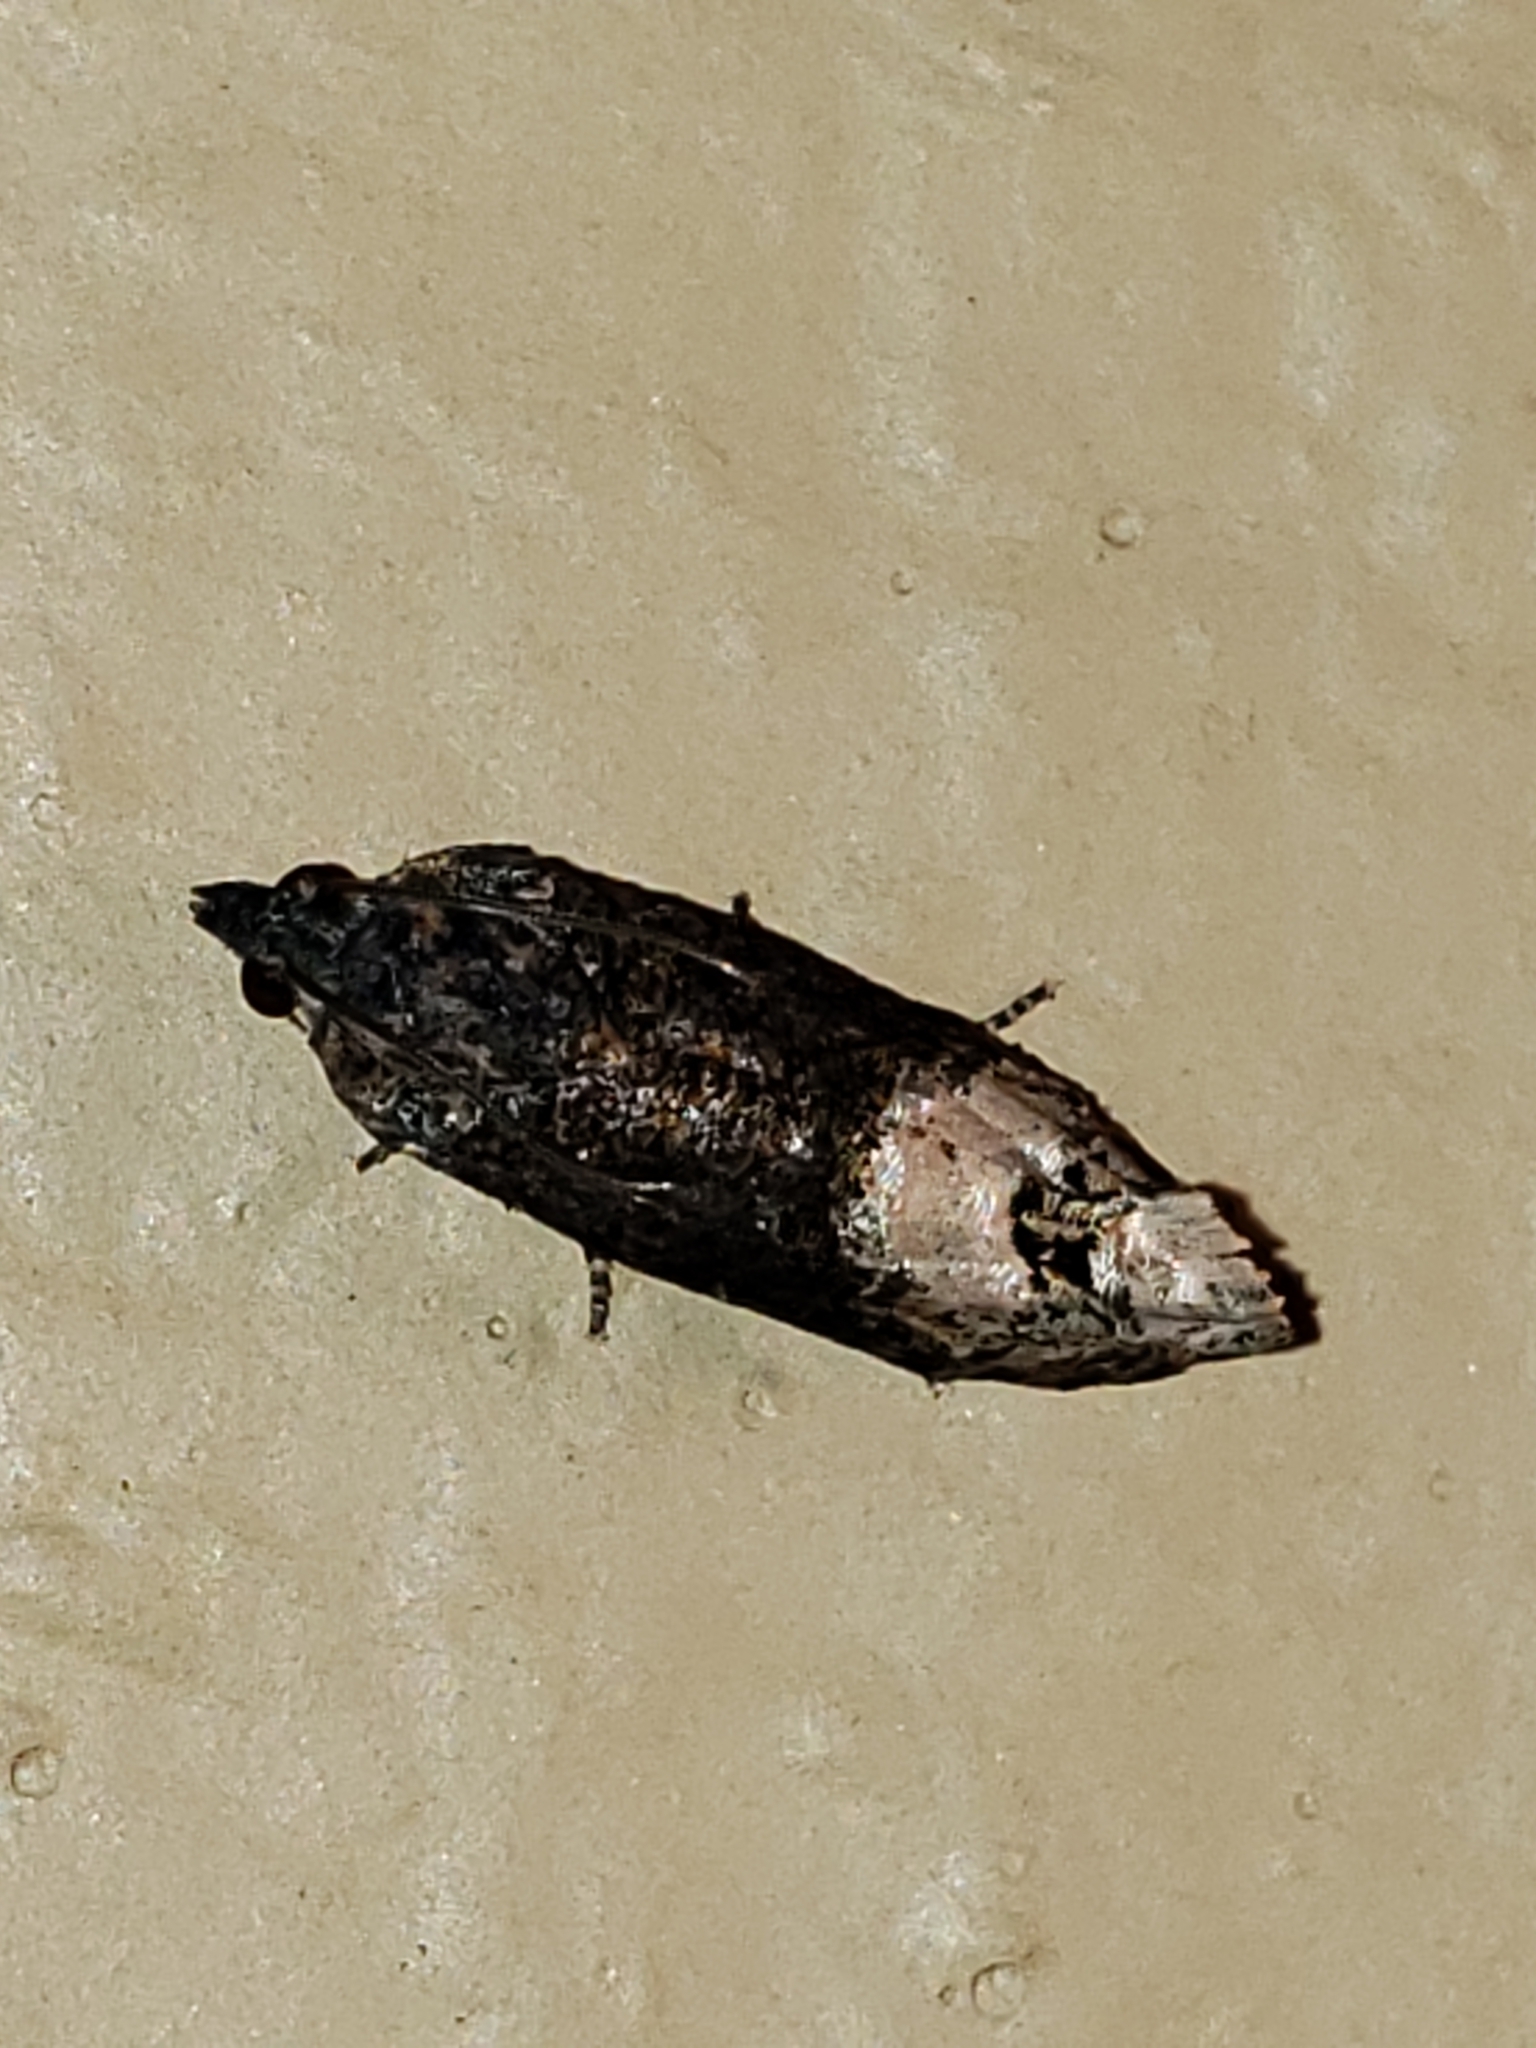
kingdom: Animalia
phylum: Arthropoda
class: Insecta
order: Lepidoptera
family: Tortricidae
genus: Ecdytolopha
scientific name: Ecdytolopha insiticiana
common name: Locust twig borer moth
